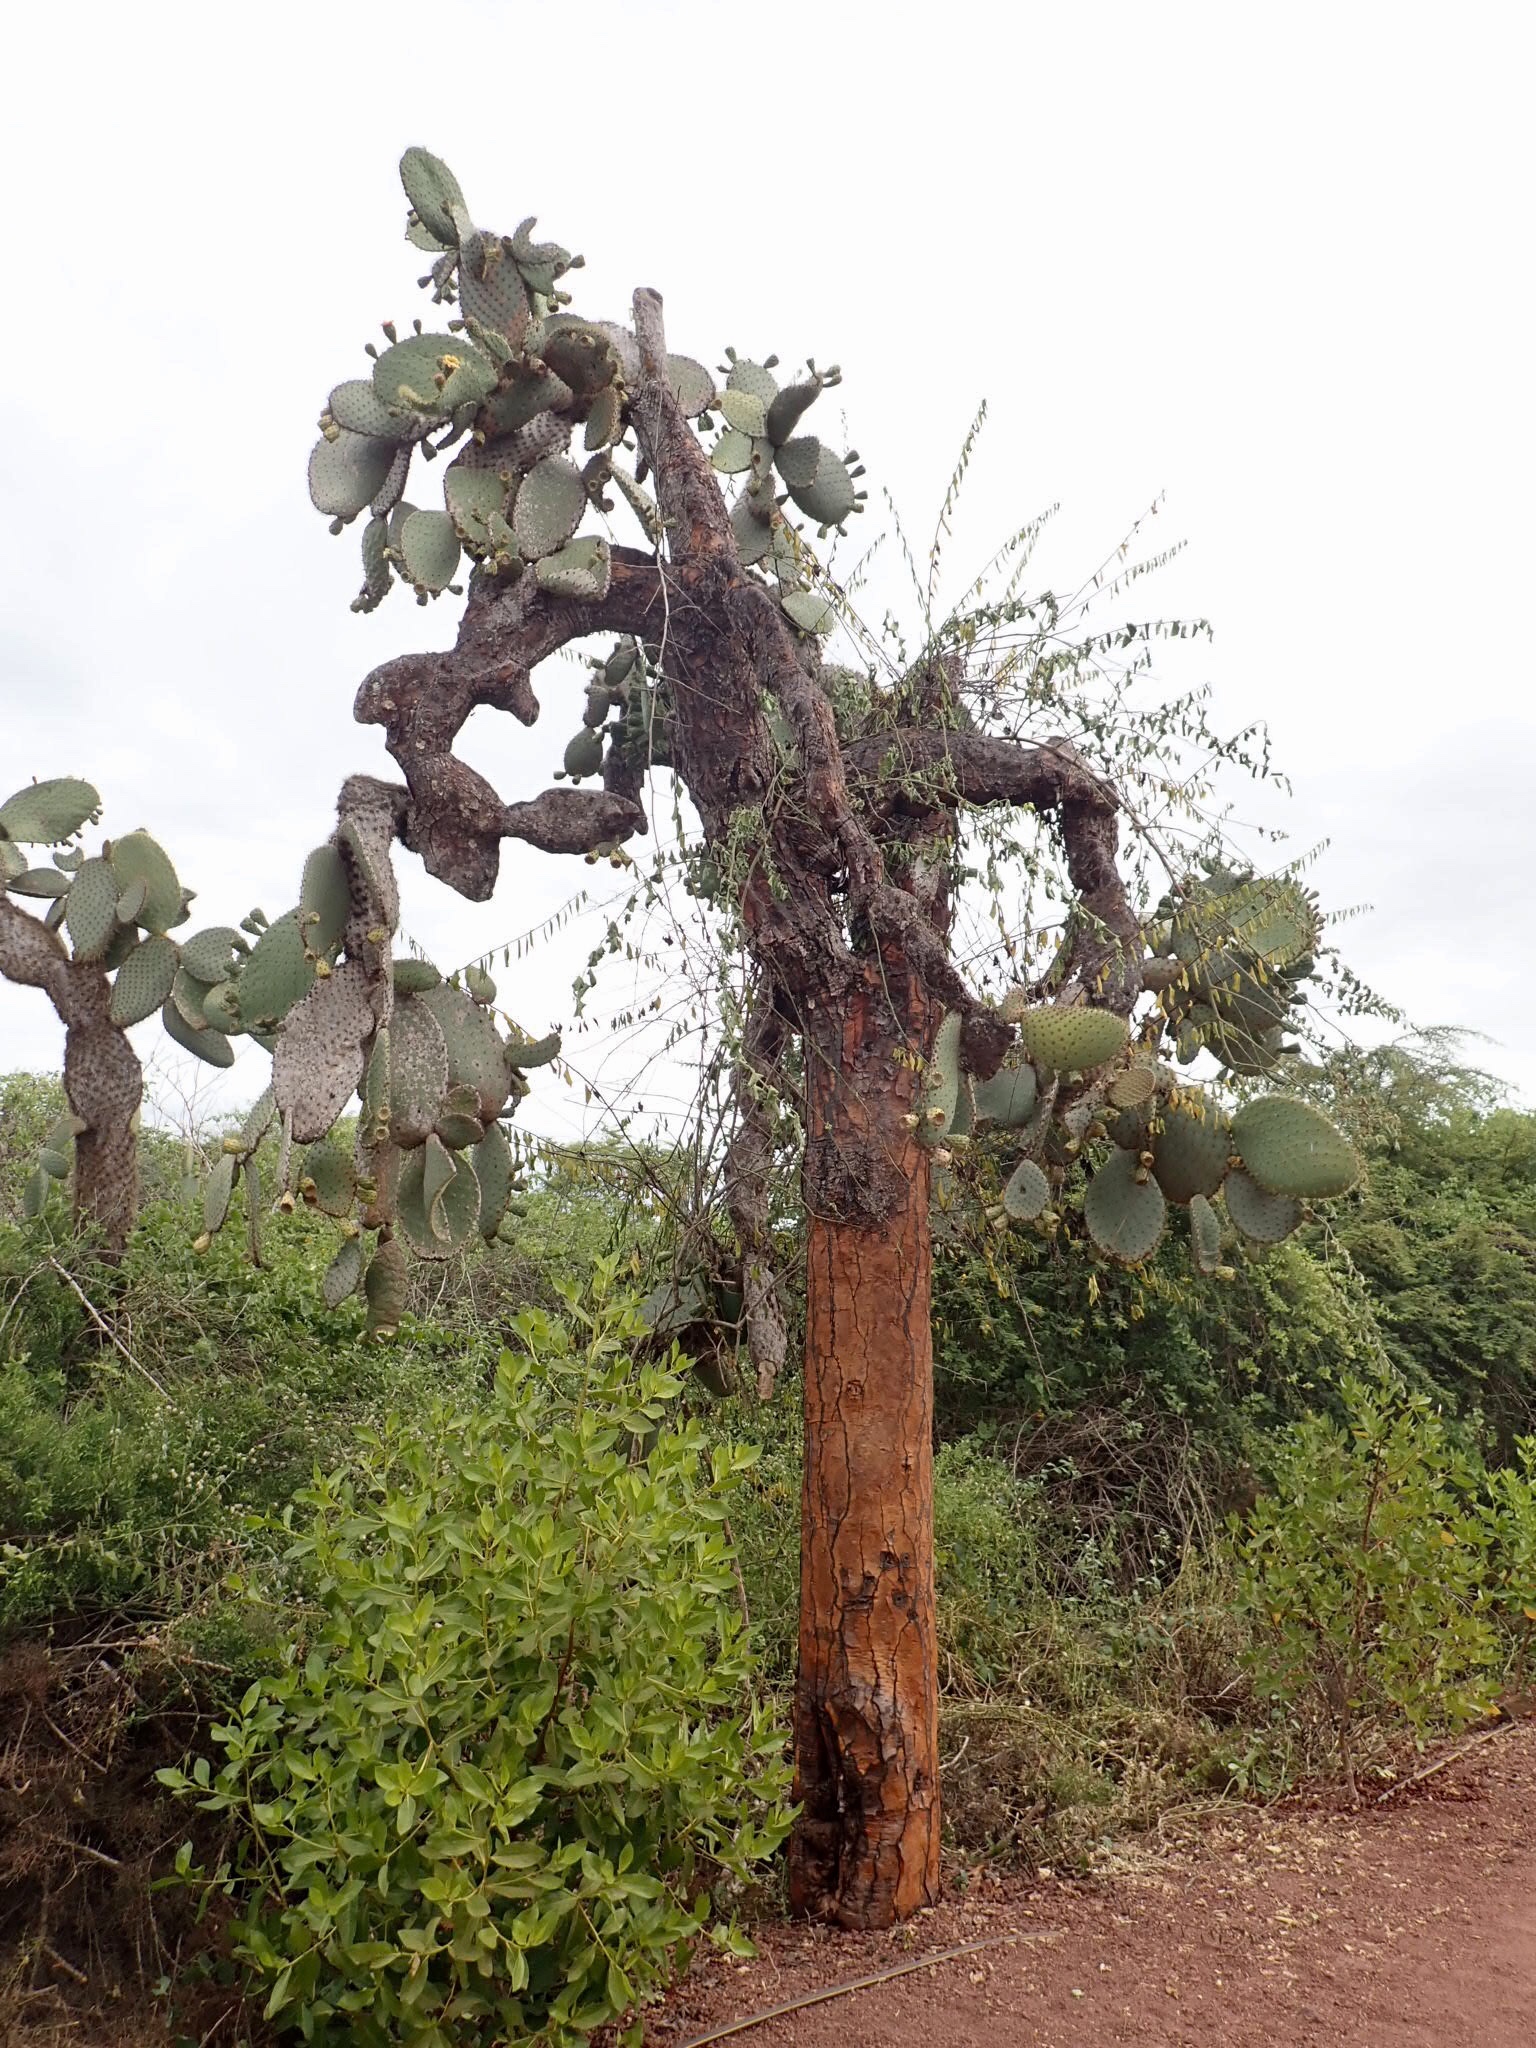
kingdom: Plantae
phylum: Tracheophyta
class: Magnoliopsida
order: Caryophyllales
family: Cactaceae
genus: Opuntia
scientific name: Opuntia galapageia
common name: Galápagos prickly pear
